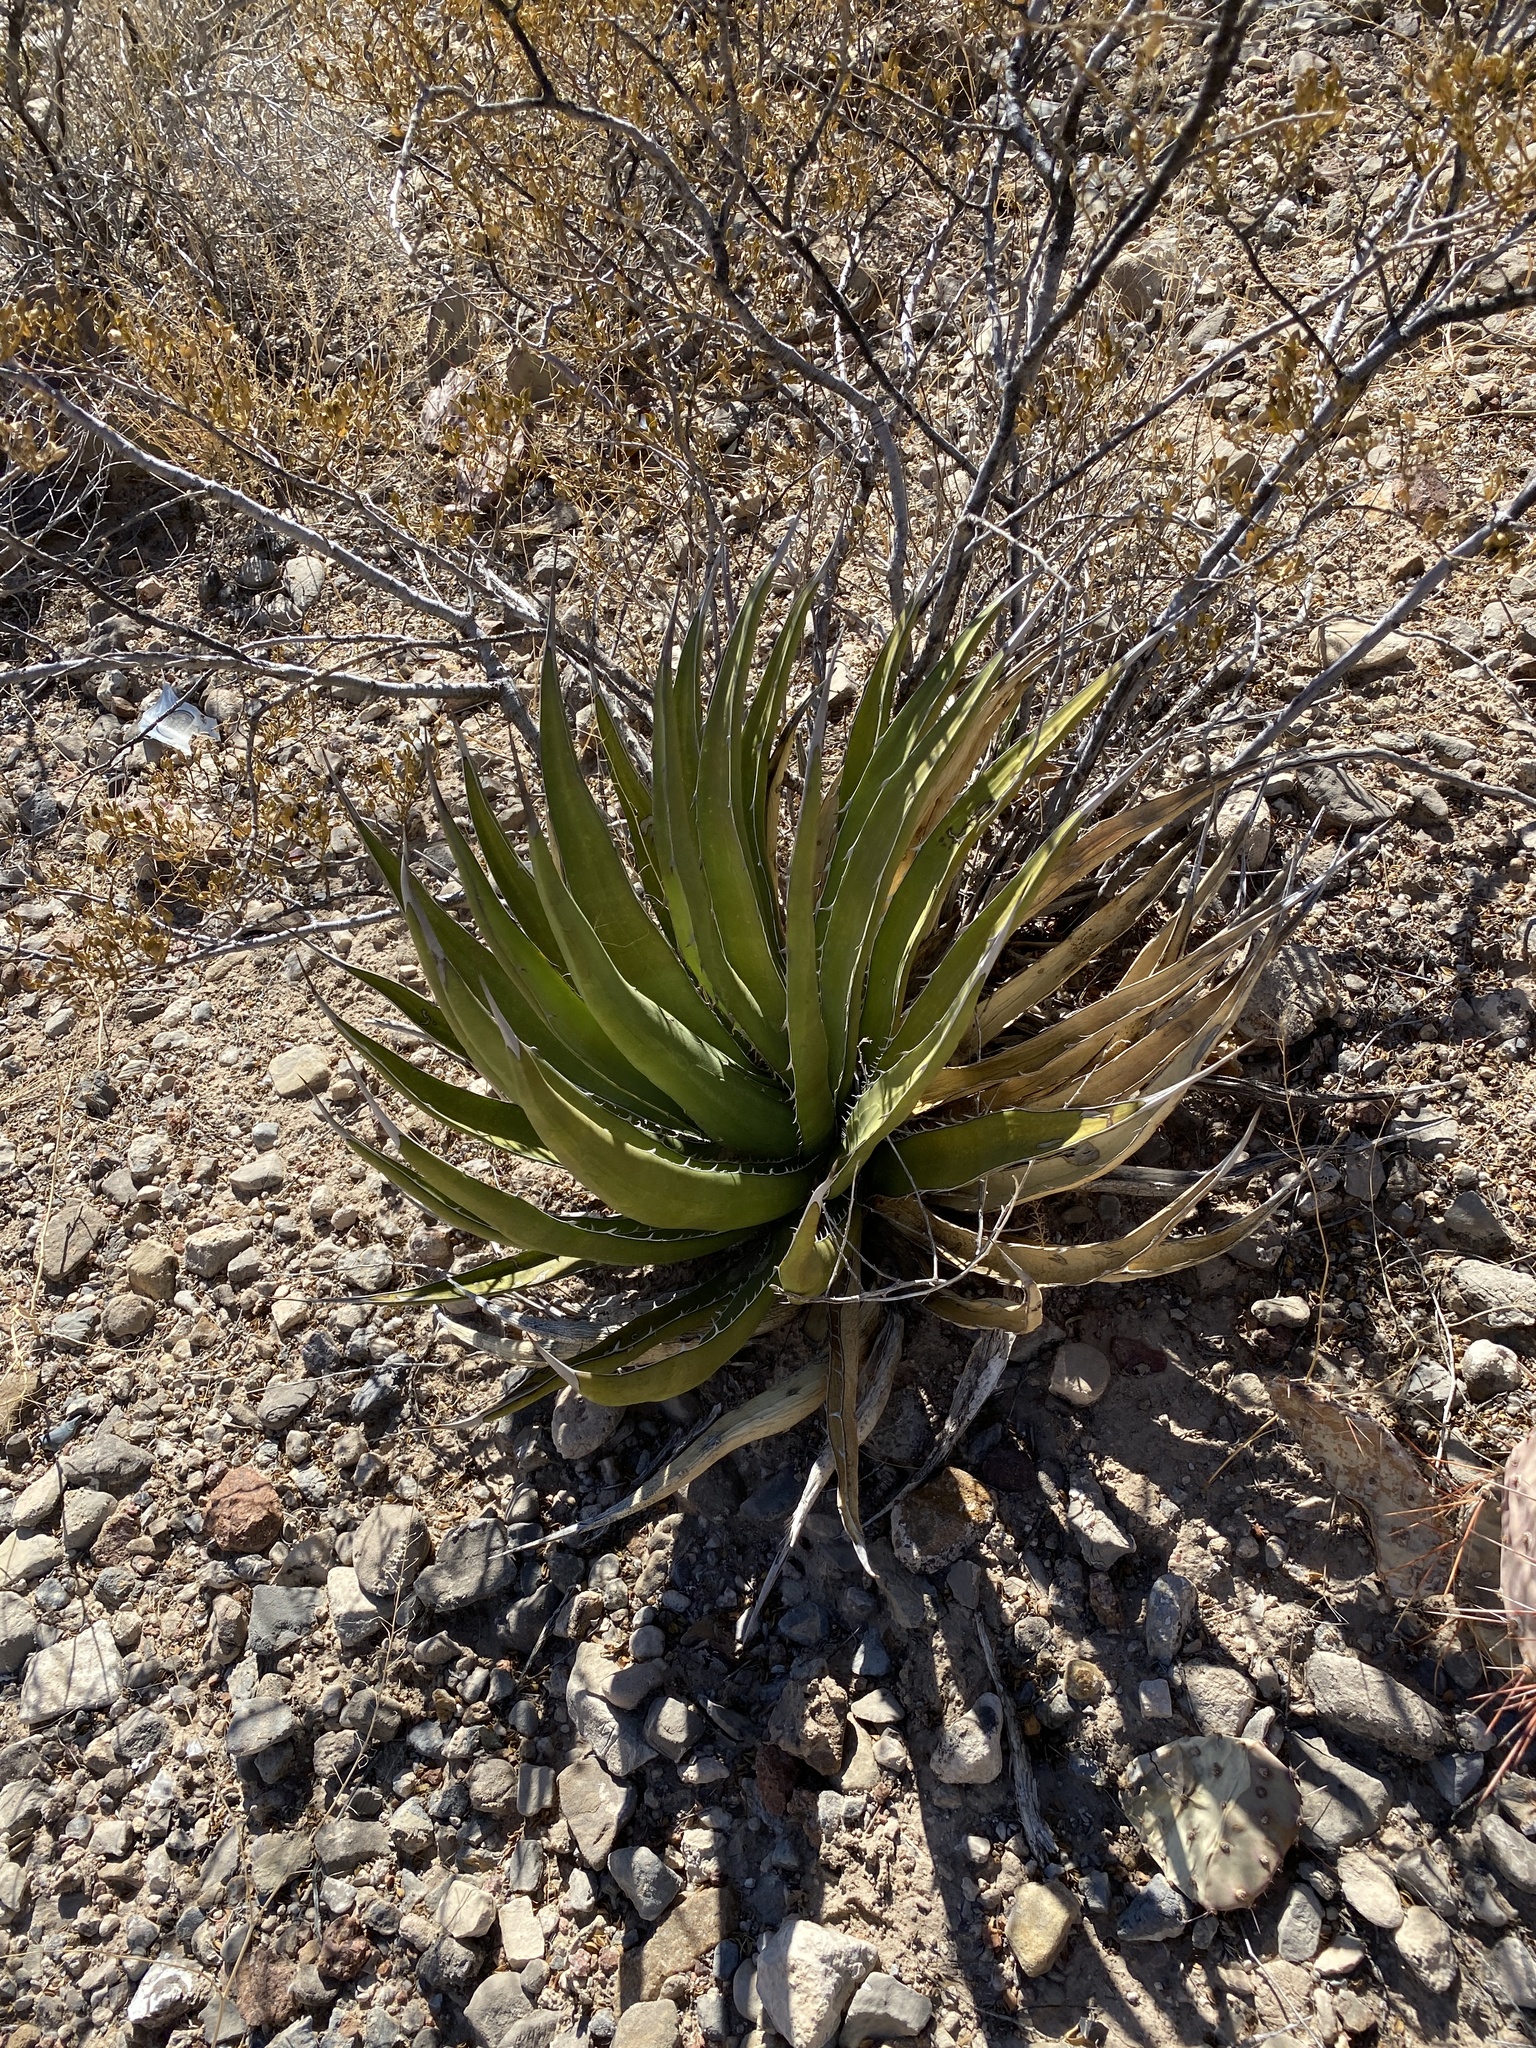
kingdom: Plantae
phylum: Tracheophyta
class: Liliopsida
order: Asparagales
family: Asparagaceae
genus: Agave
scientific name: Agave lechuguilla
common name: Lecheguilla agave
